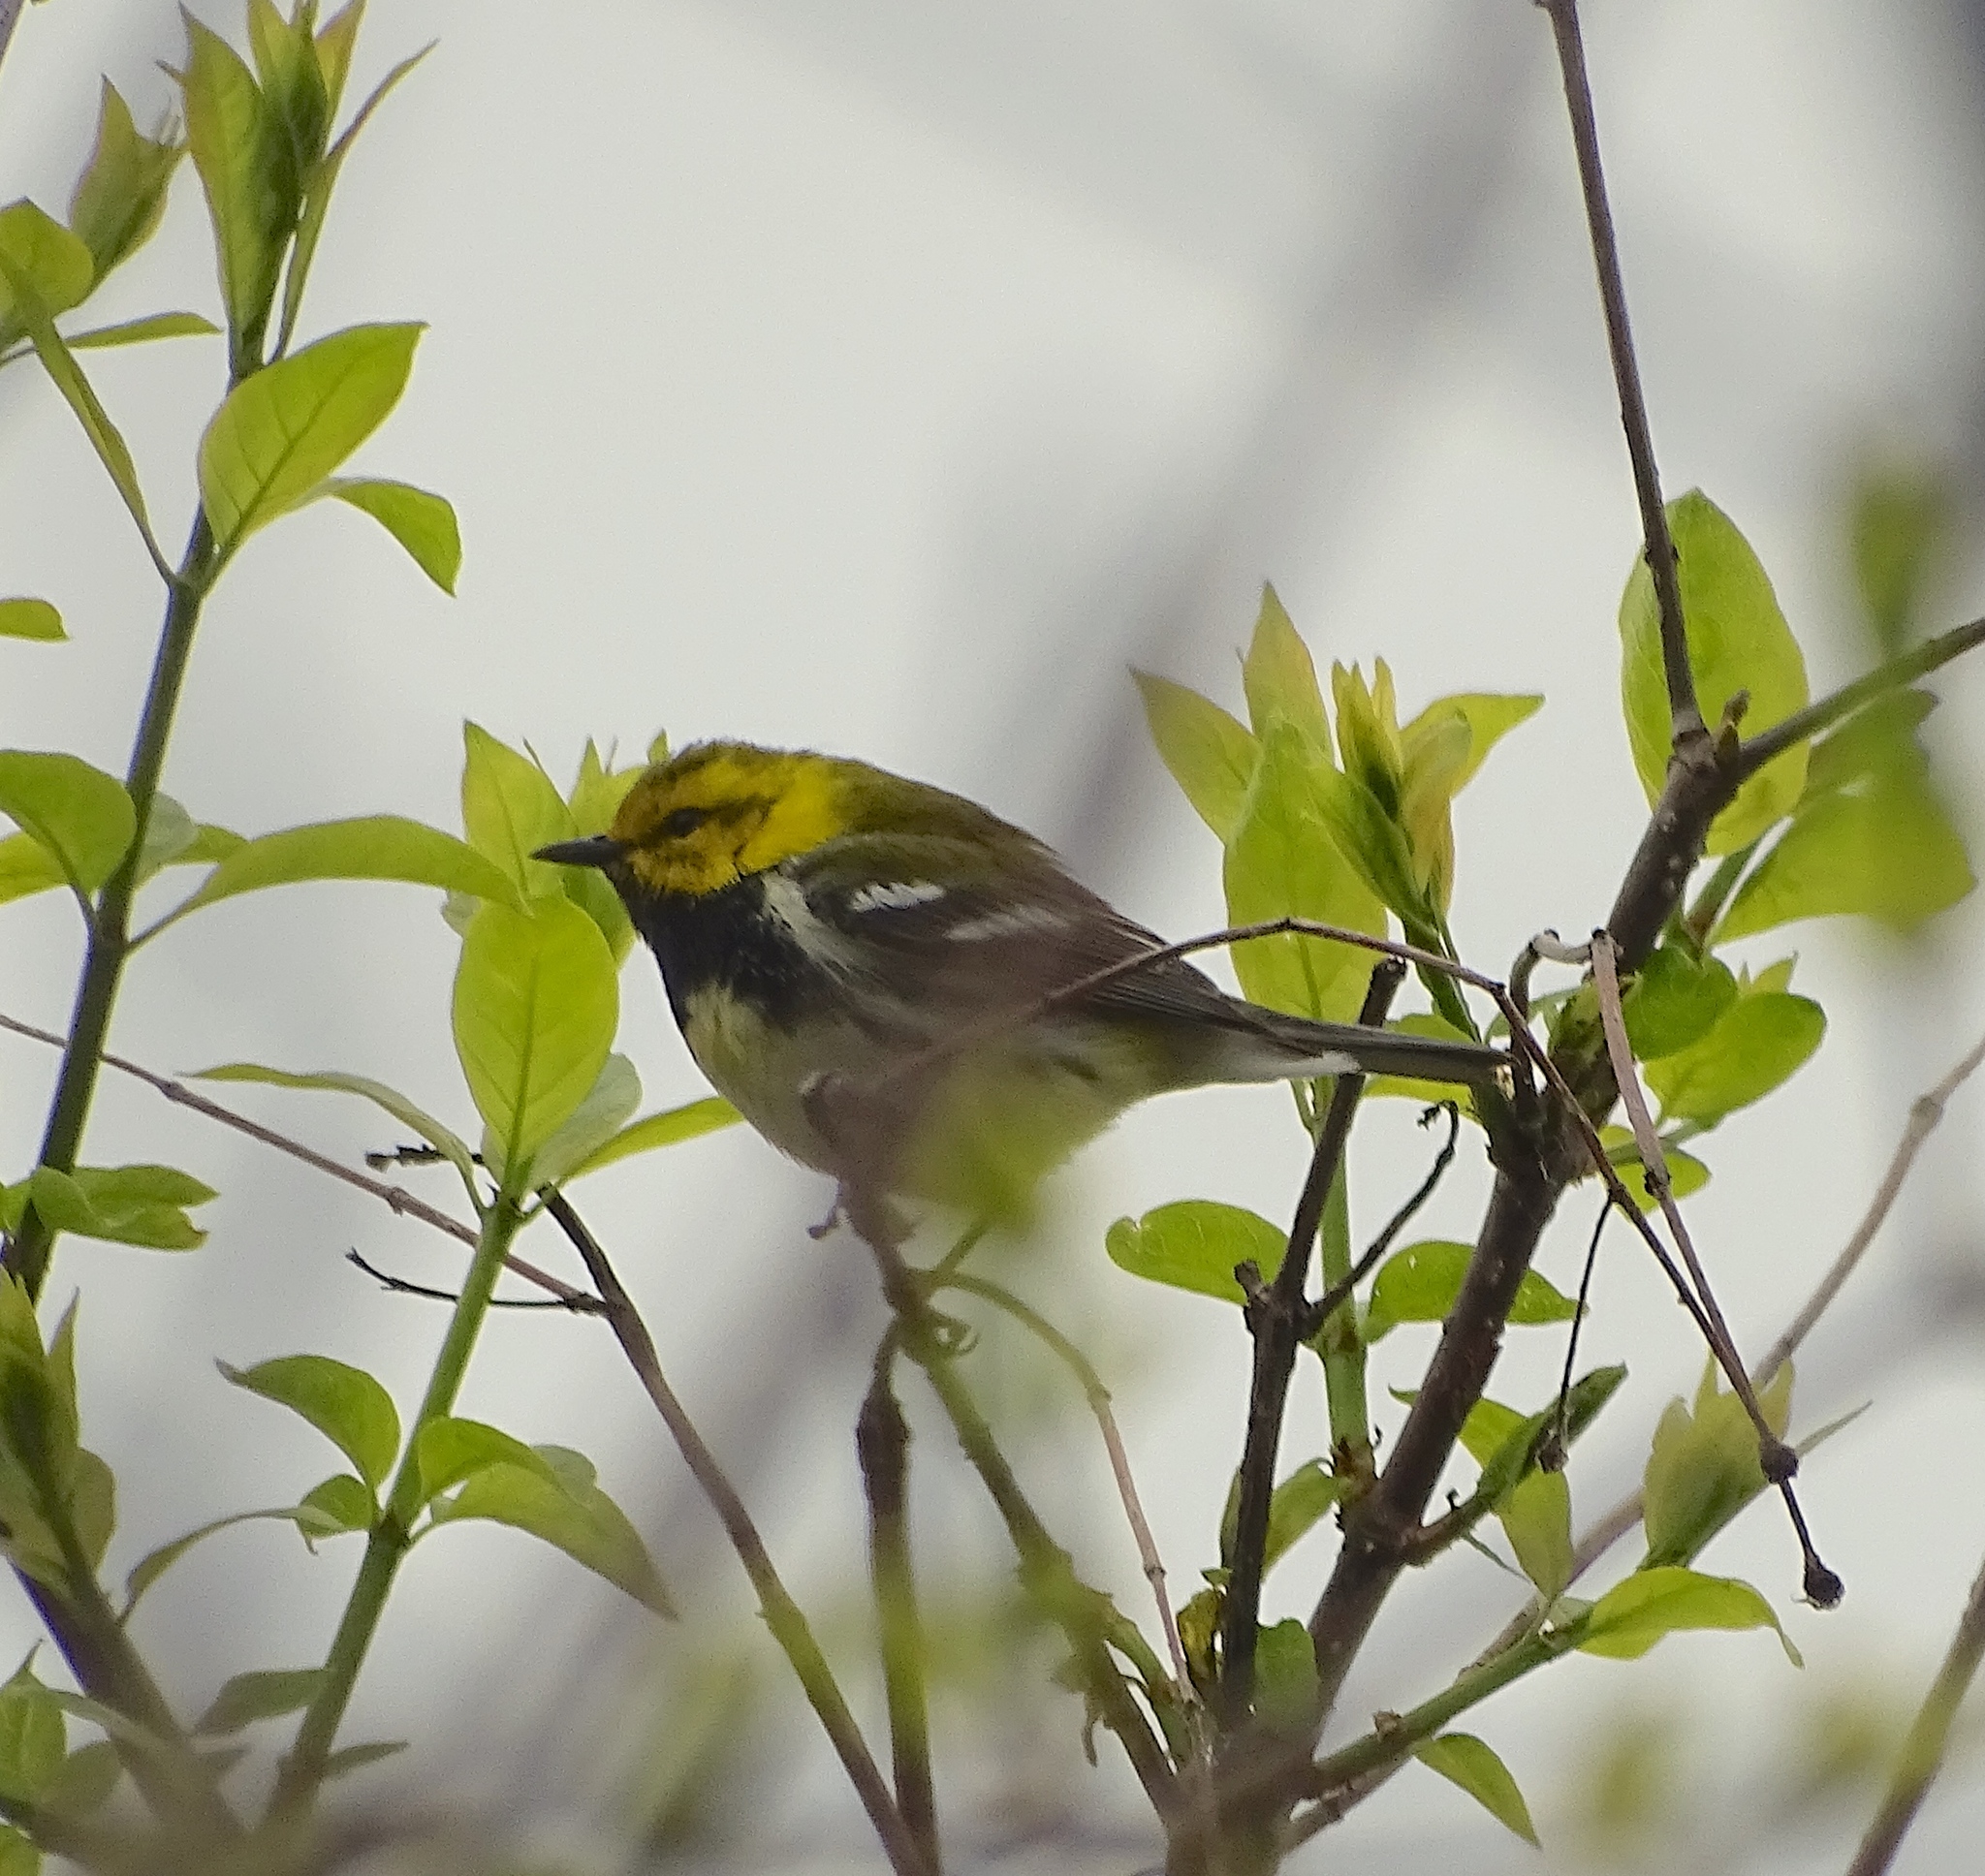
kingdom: Animalia
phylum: Chordata
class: Aves
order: Passeriformes
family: Parulidae
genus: Setophaga
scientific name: Setophaga virens
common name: Black-throated green warbler
